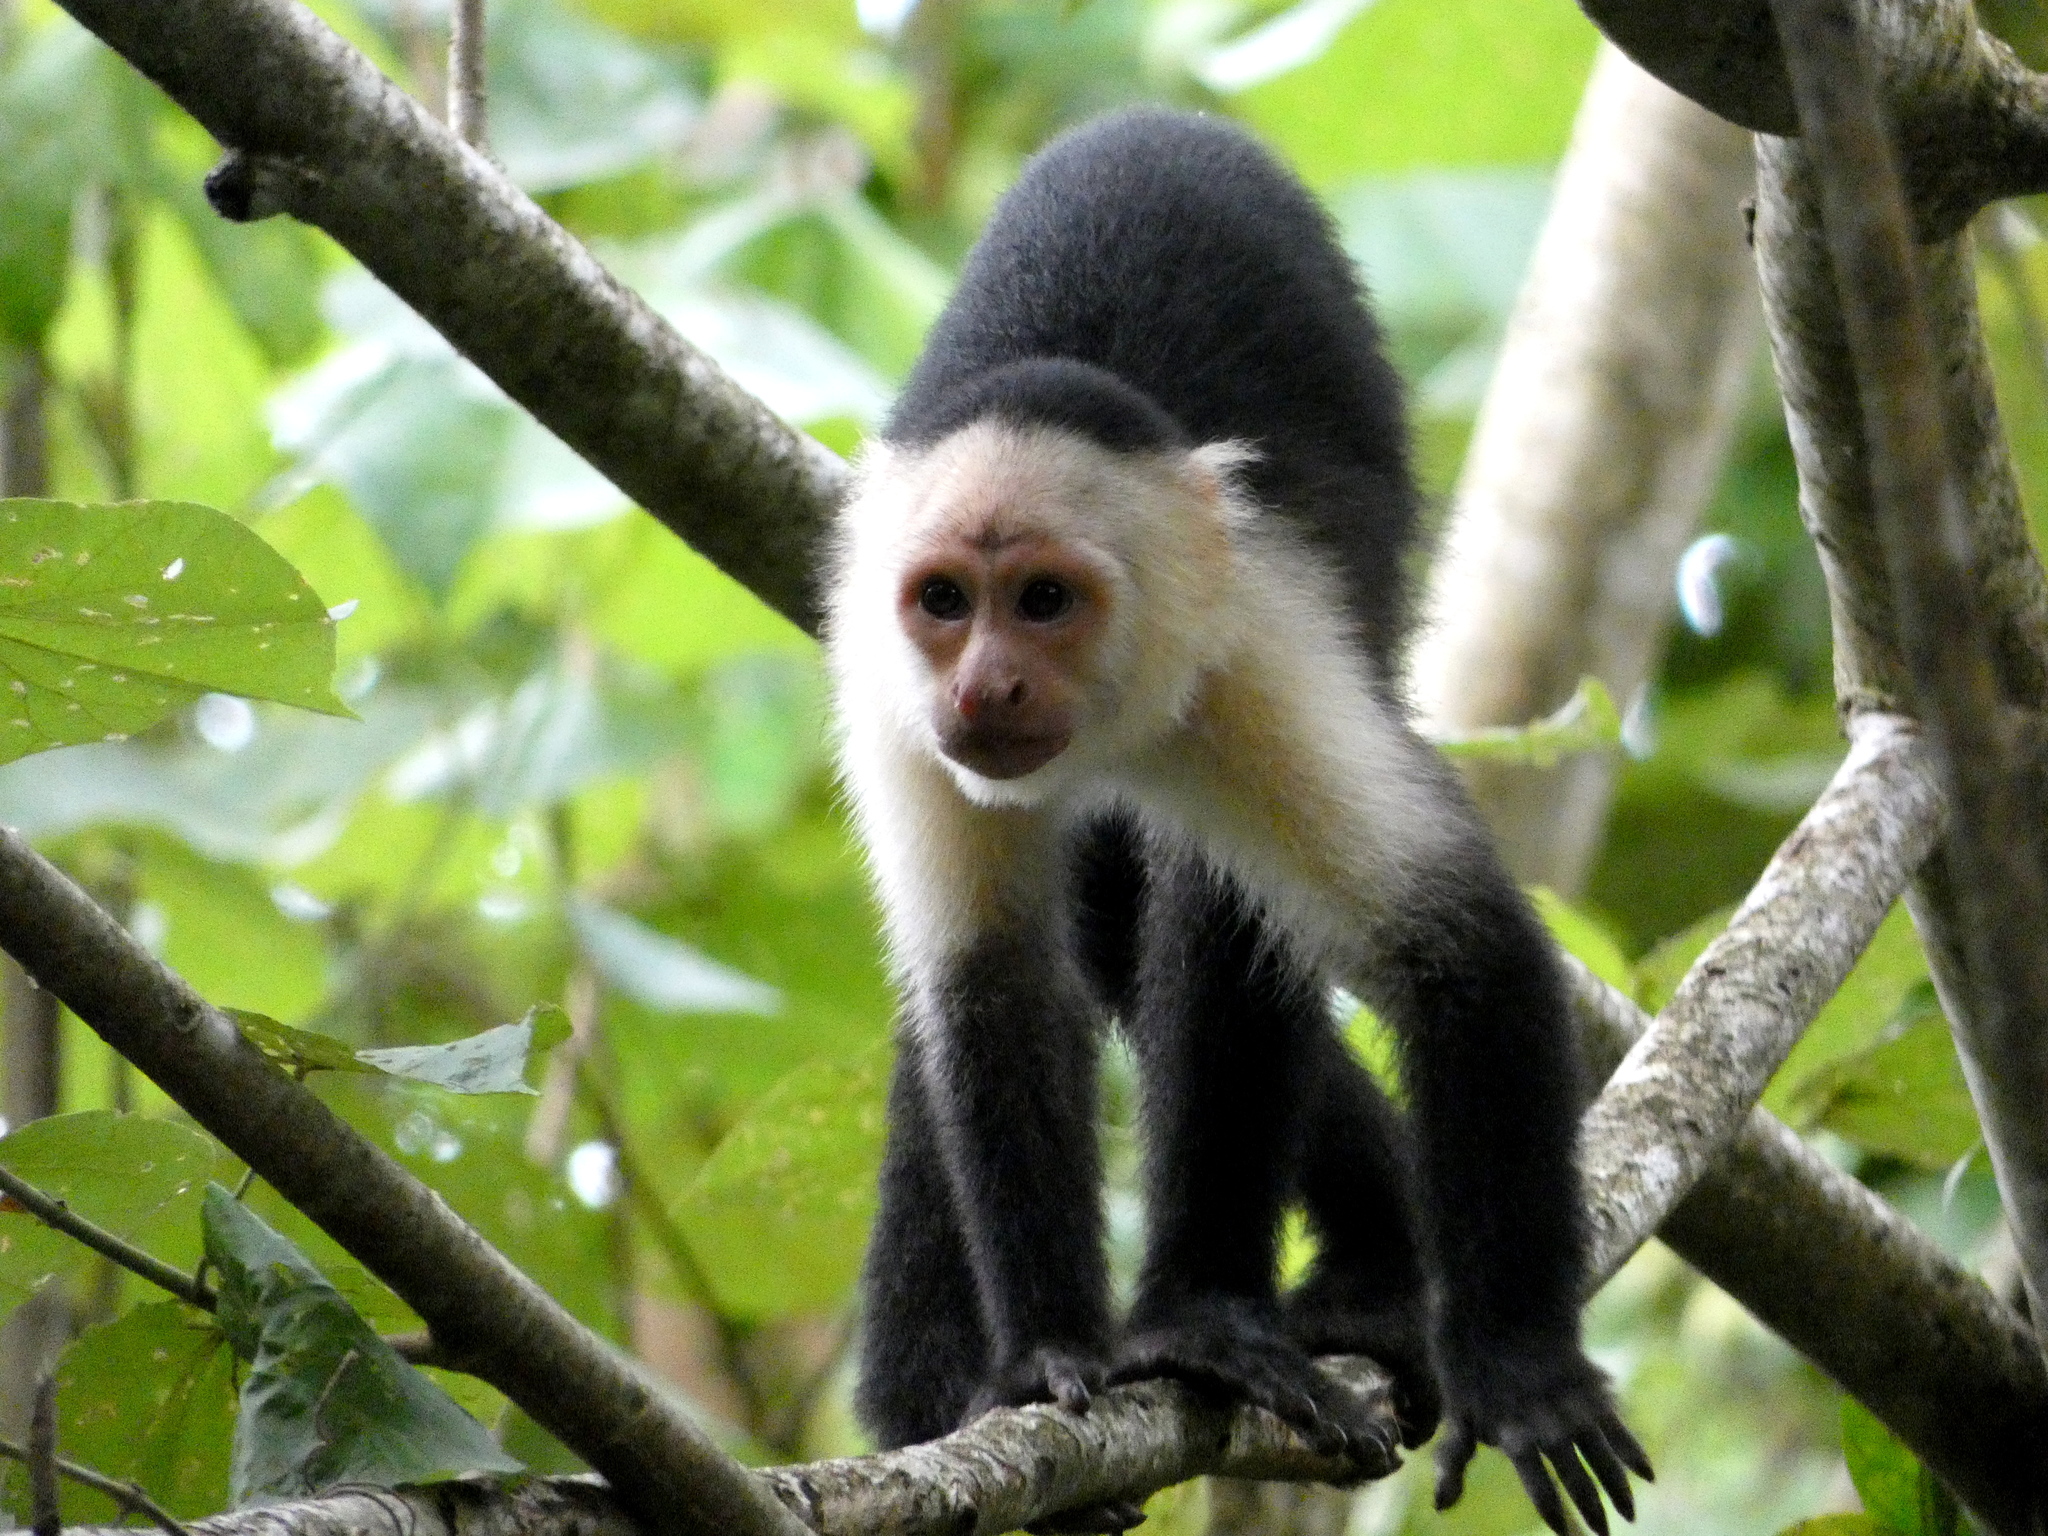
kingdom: Animalia
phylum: Chordata
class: Mammalia
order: Primates
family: Cebidae
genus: Cebus
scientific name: Cebus imitator
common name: Panamanian white-faced capuchin
